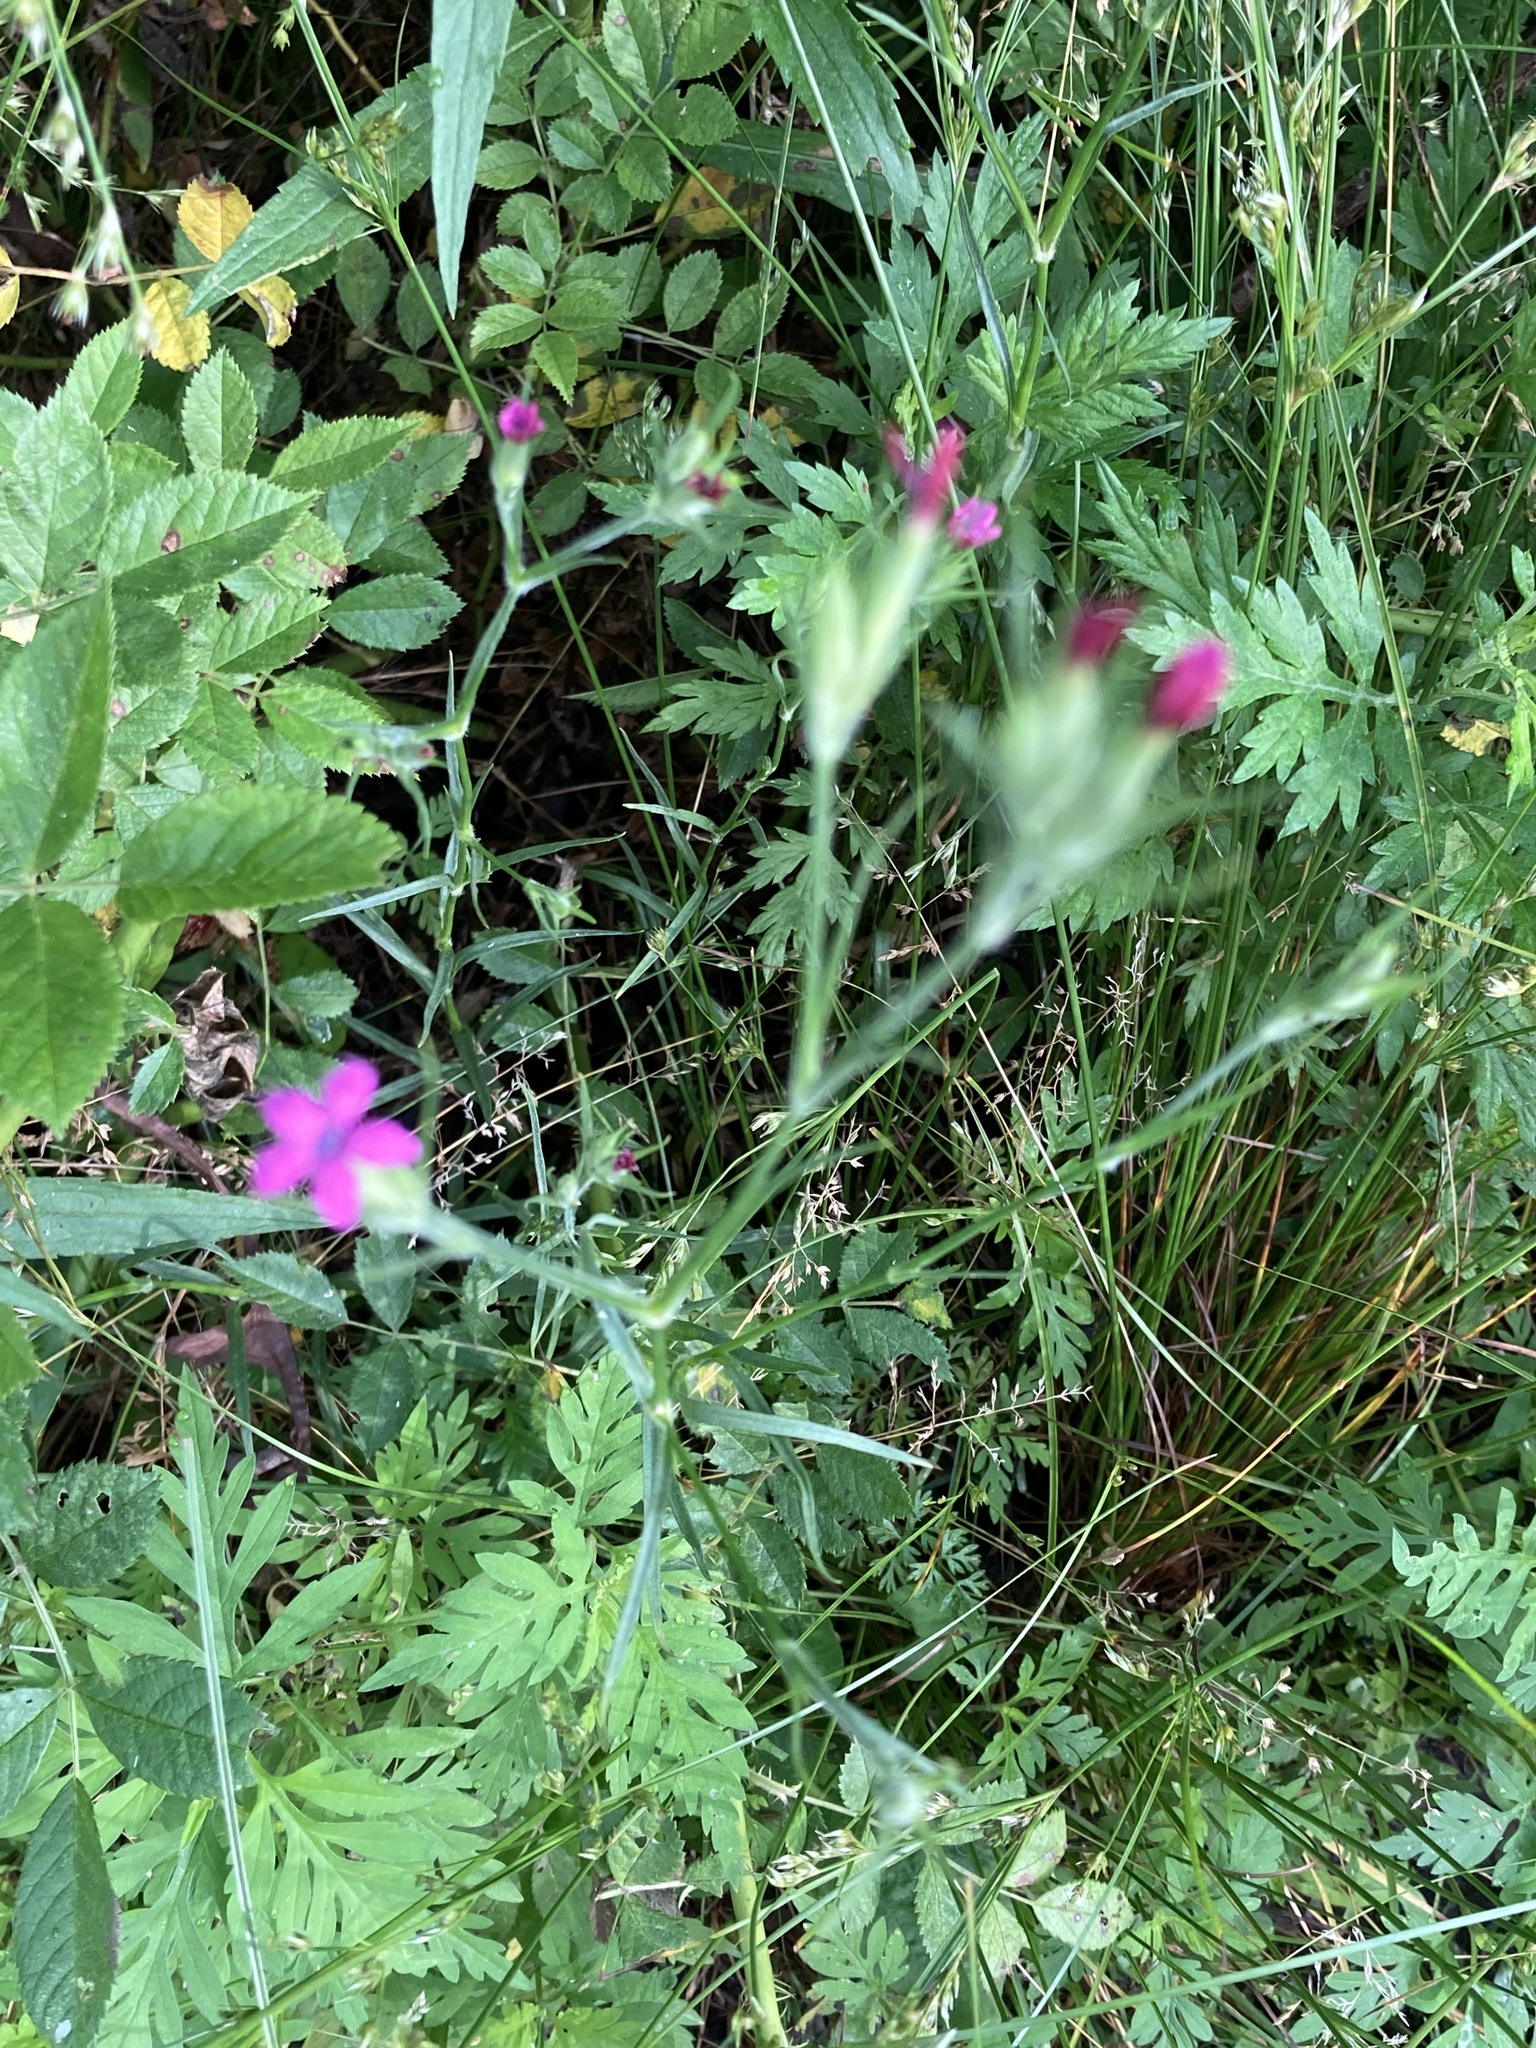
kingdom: Plantae
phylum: Tracheophyta
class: Magnoliopsida
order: Caryophyllales
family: Caryophyllaceae
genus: Dianthus
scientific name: Dianthus armeria
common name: Deptford pink
